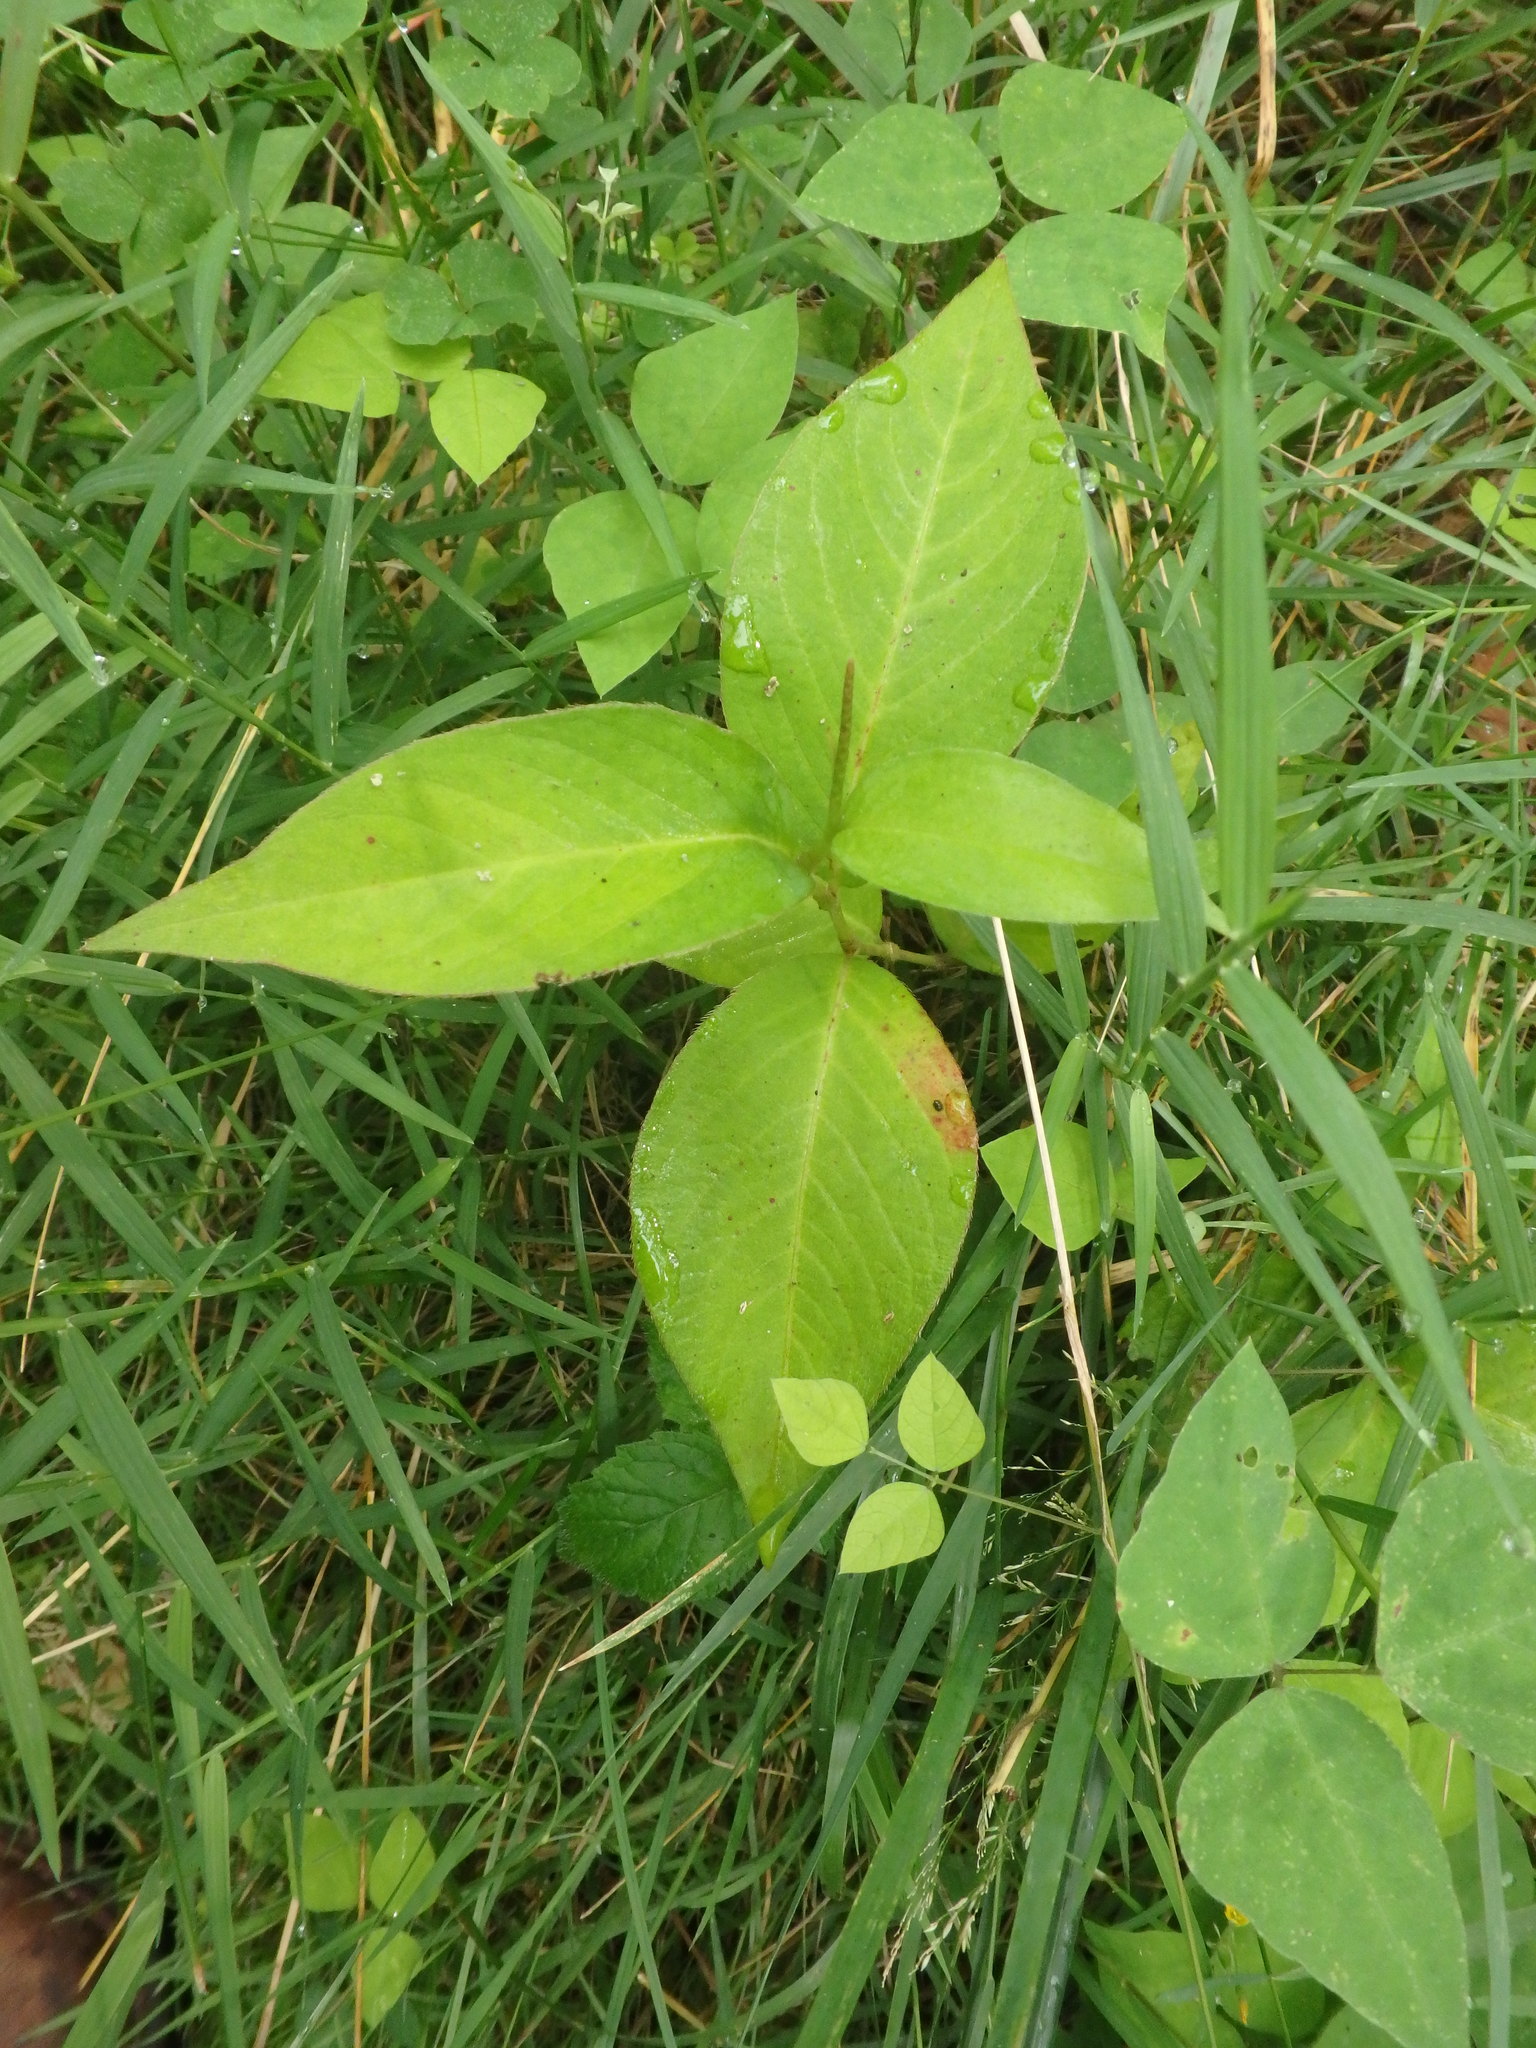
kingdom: Plantae
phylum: Tracheophyta
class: Magnoliopsida
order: Caryophyllales
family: Polygonaceae
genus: Persicaria
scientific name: Persicaria virginiana
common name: Jumpseed
